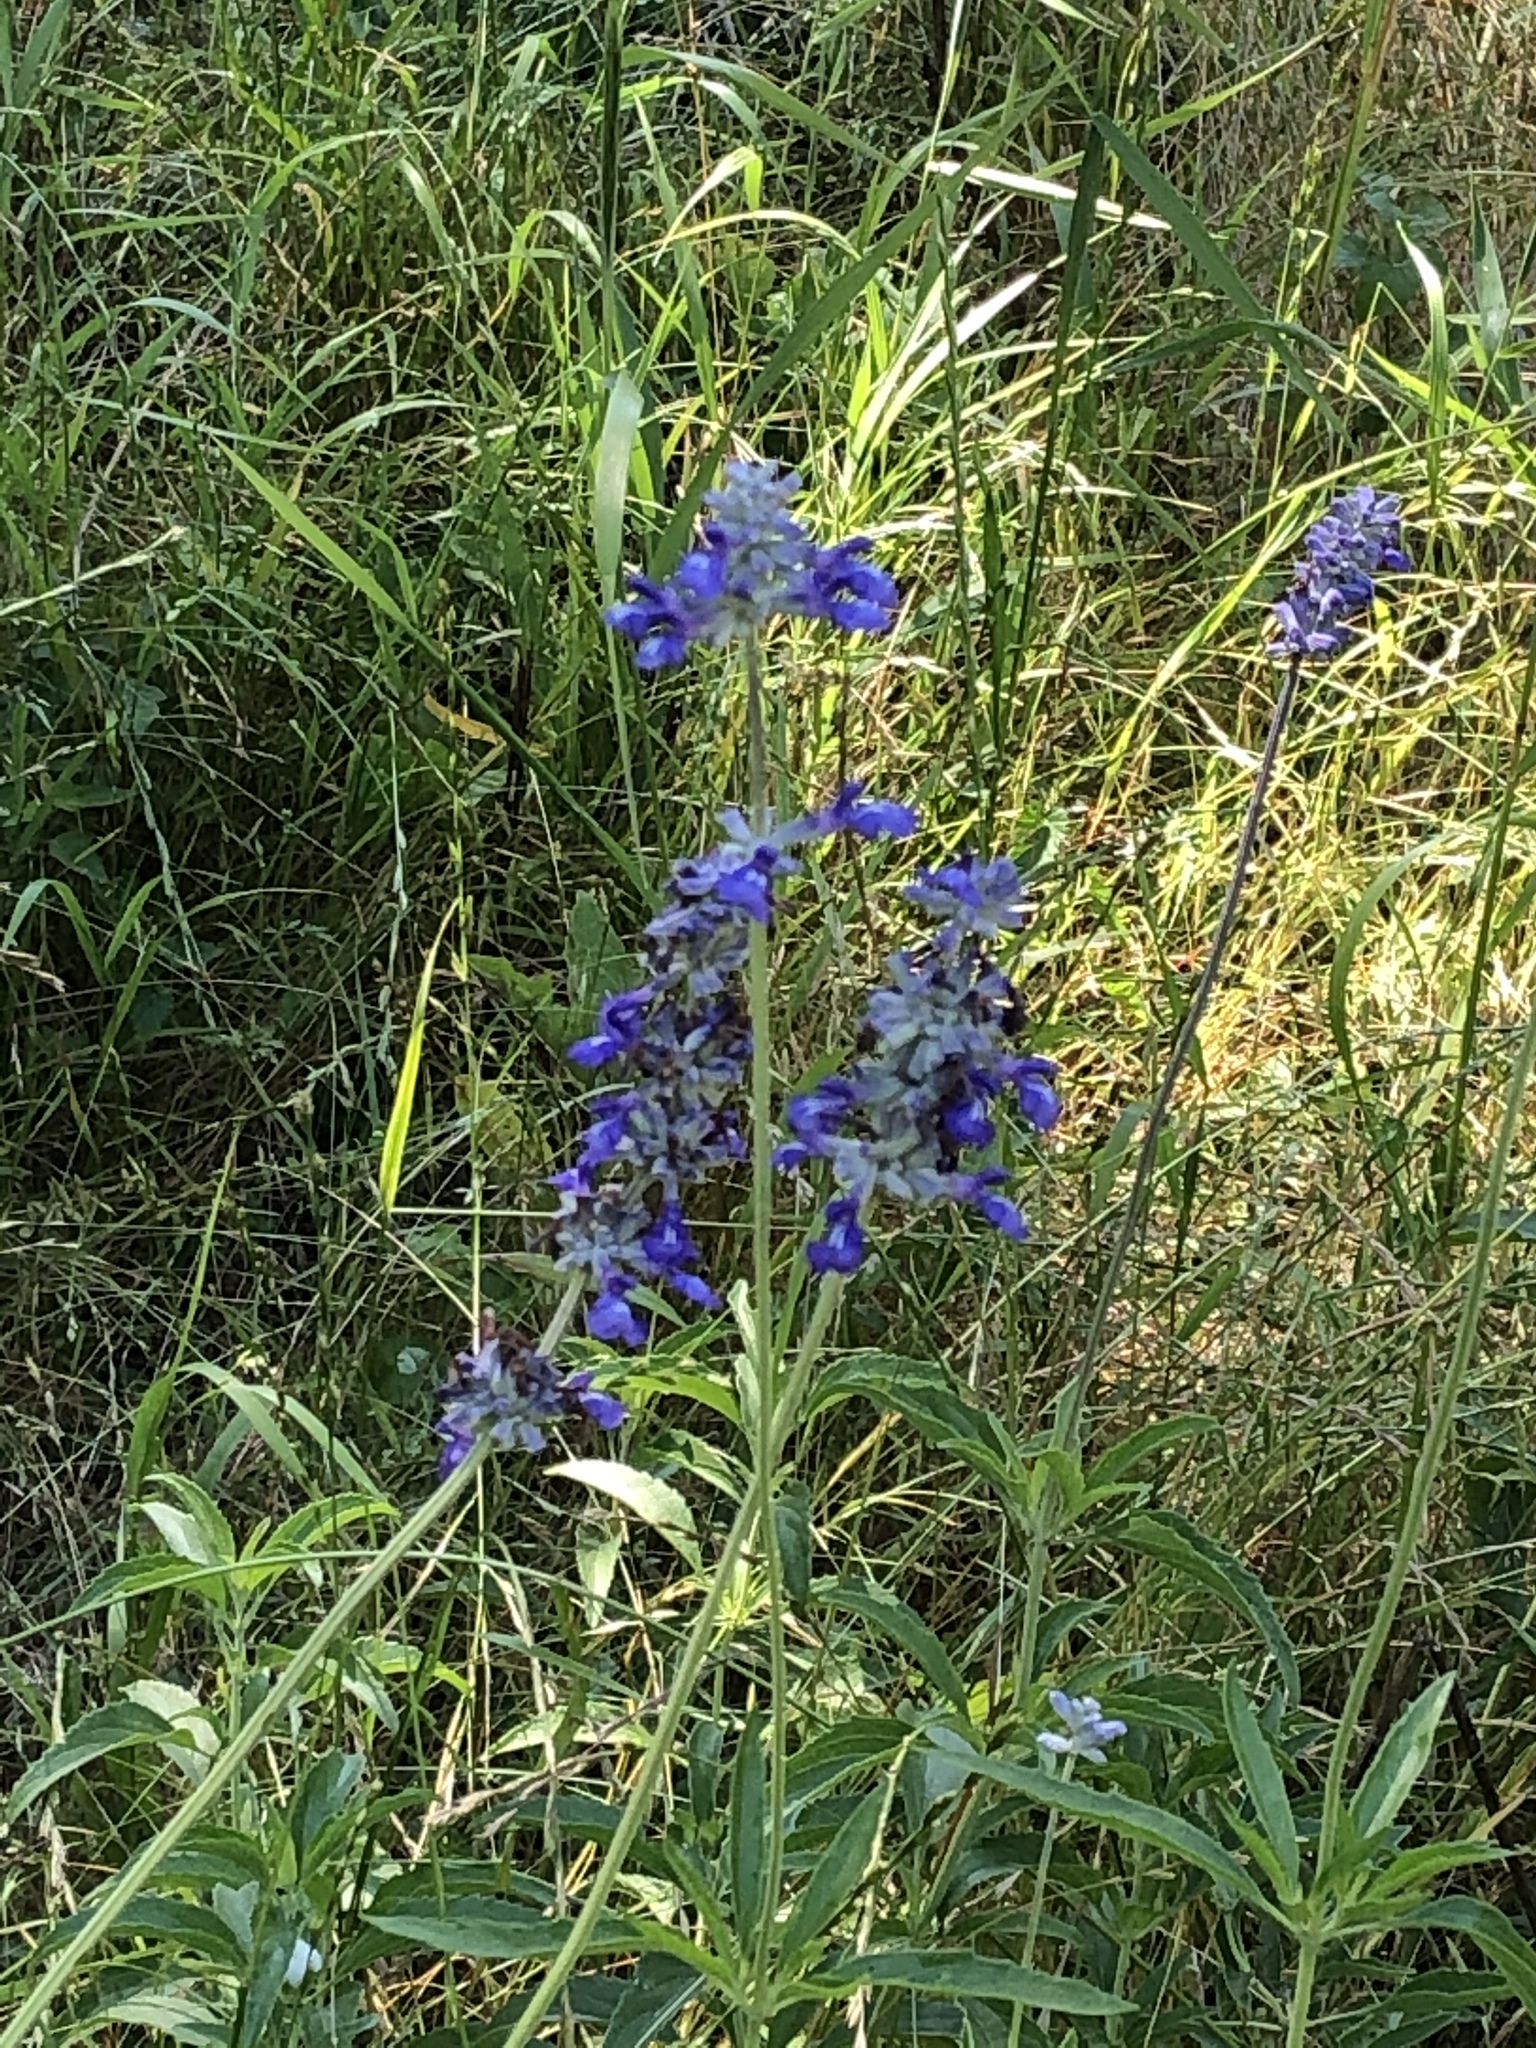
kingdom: Plantae
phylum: Tracheophyta
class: Magnoliopsida
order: Lamiales
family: Lamiaceae
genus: Salvia
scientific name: Salvia farinacea
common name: Mealy sage
